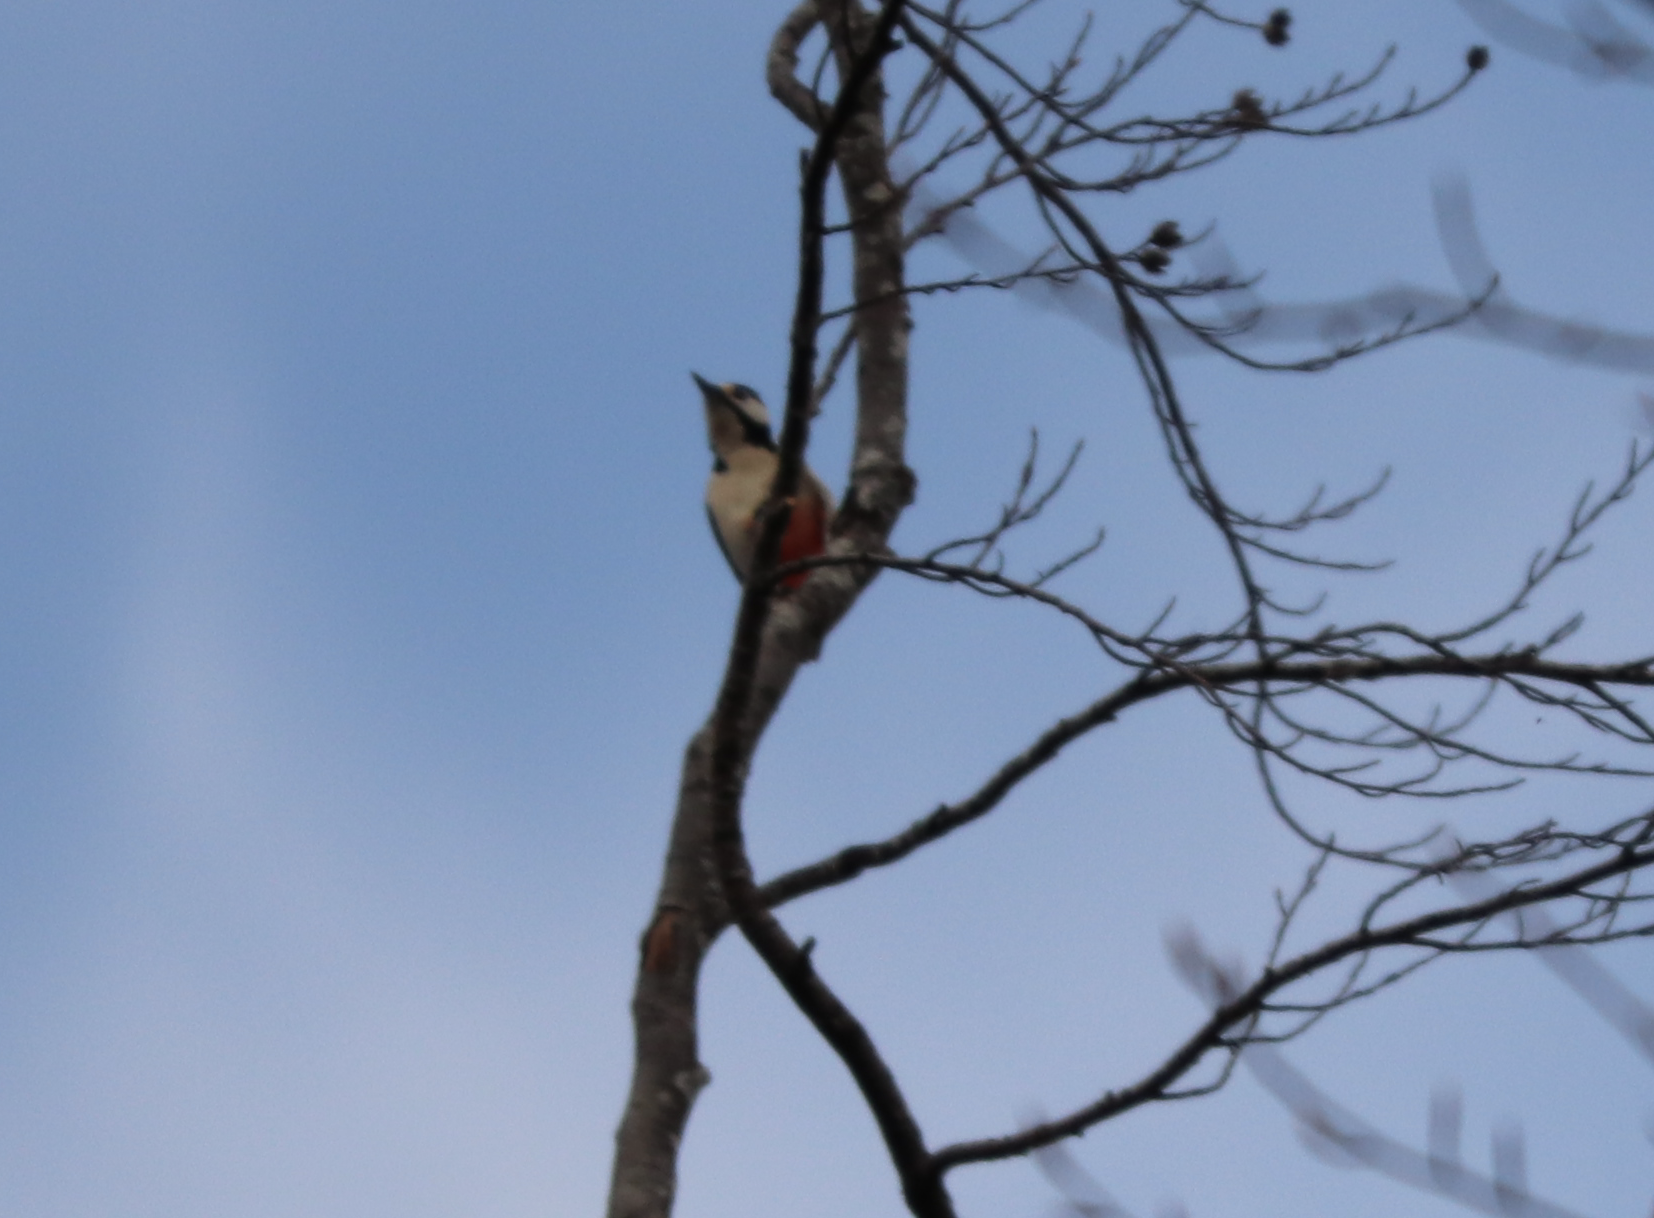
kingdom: Animalia
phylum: Chordata
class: Aves
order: Piciformes
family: Picidae
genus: Dendrocopos
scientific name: Dendrocopos major
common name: Great spotted woodpecker
